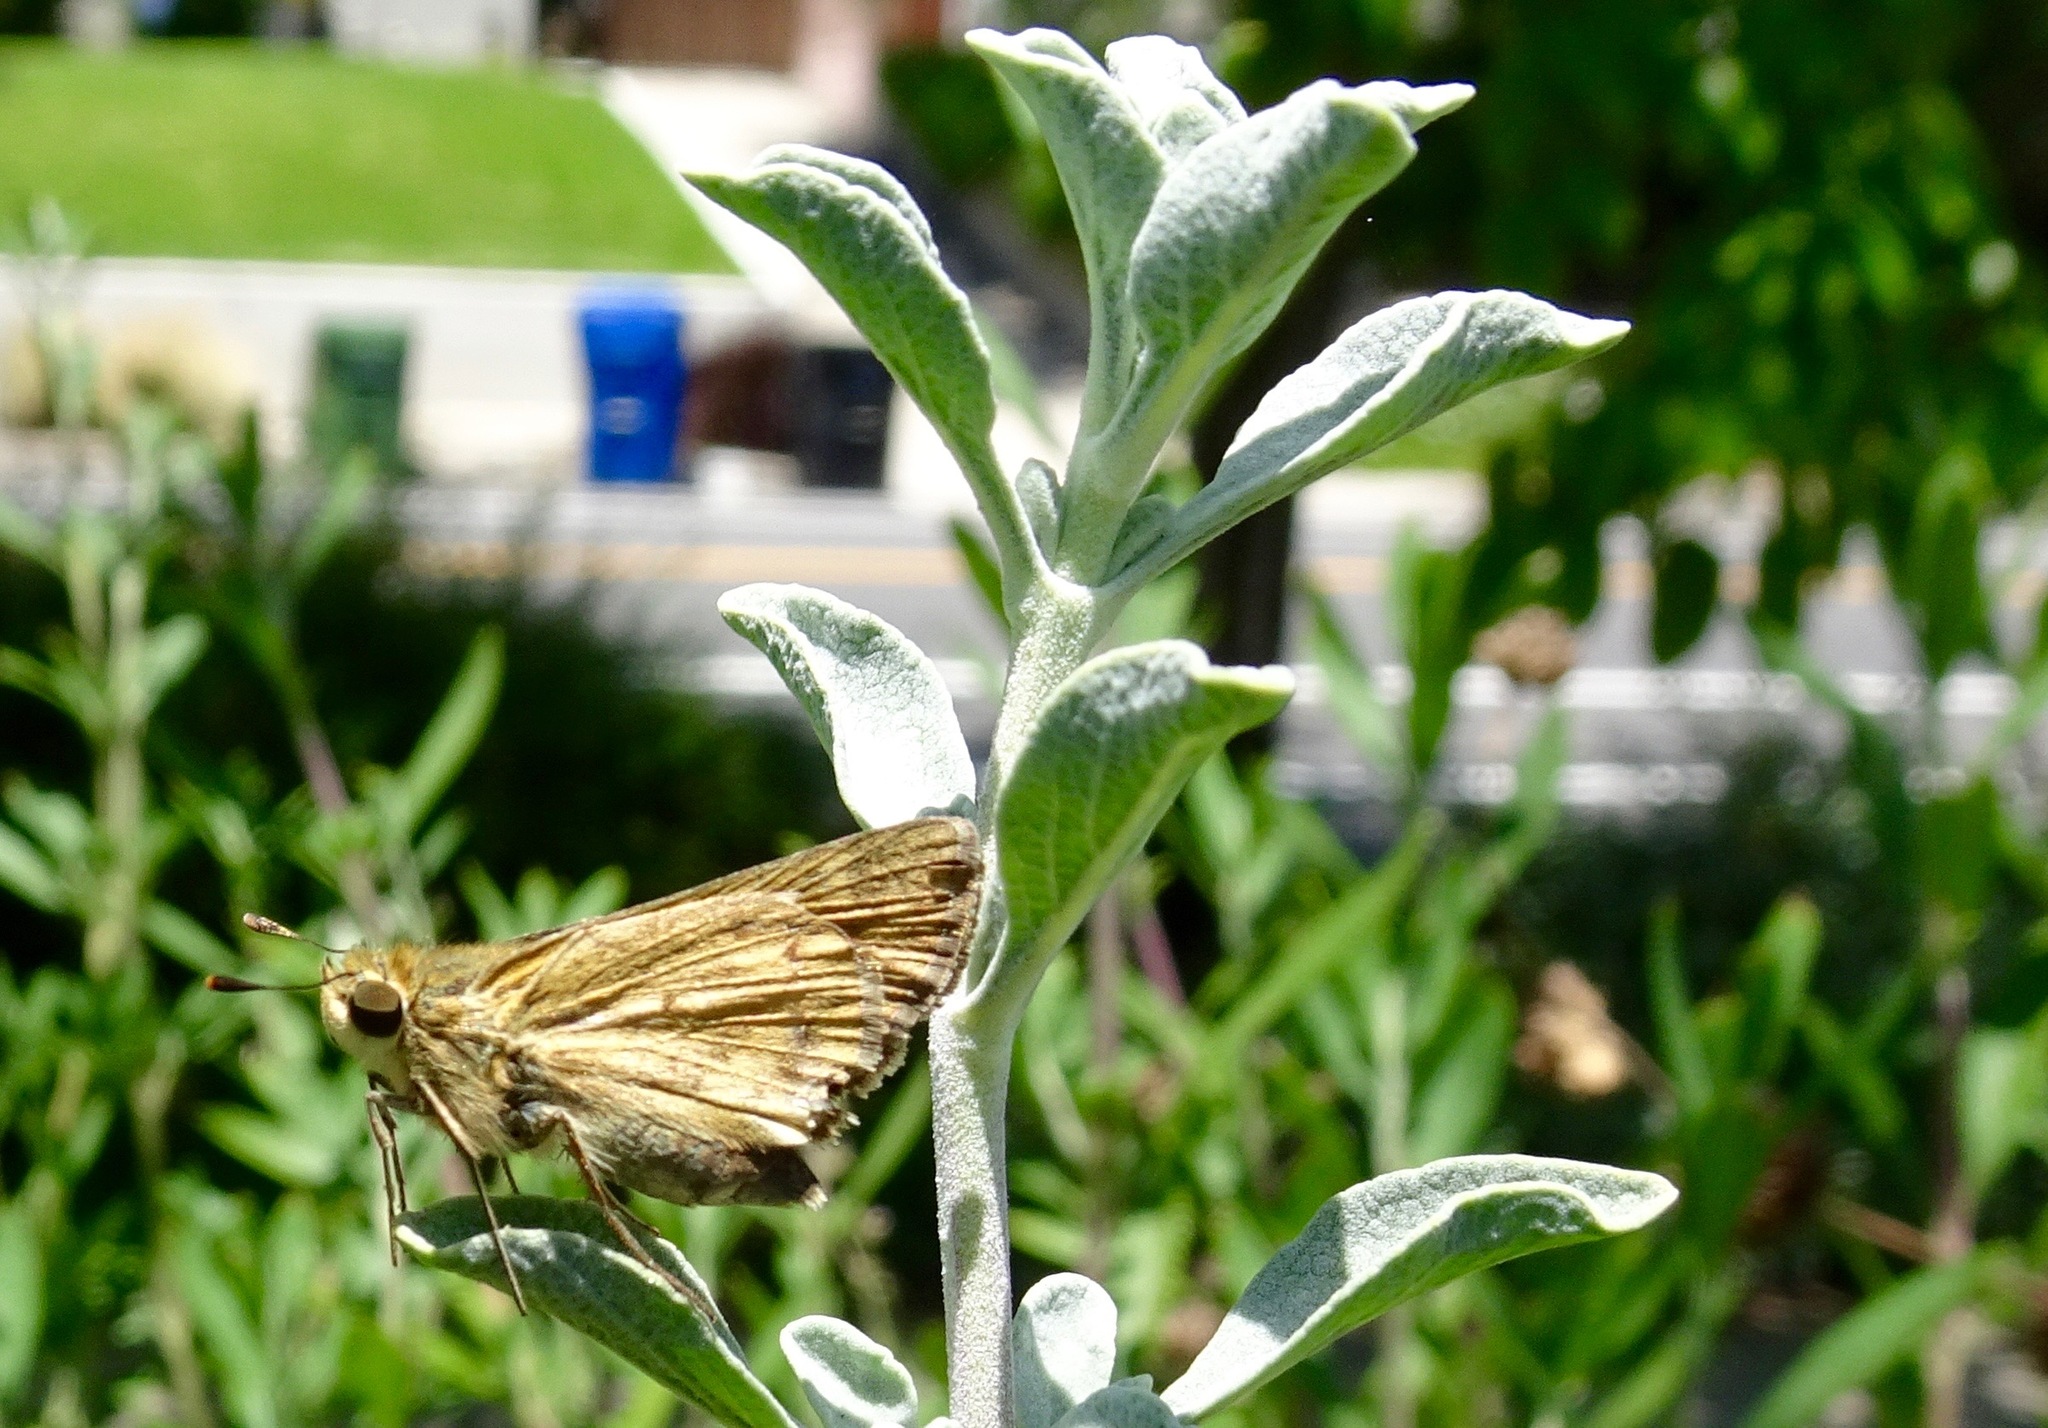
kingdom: Animalia
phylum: Arthropoda
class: Insecta
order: Lepidoptera
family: Hesperiidae
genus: Hylephila
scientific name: Hylephila phyleus
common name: Fiery skipper
